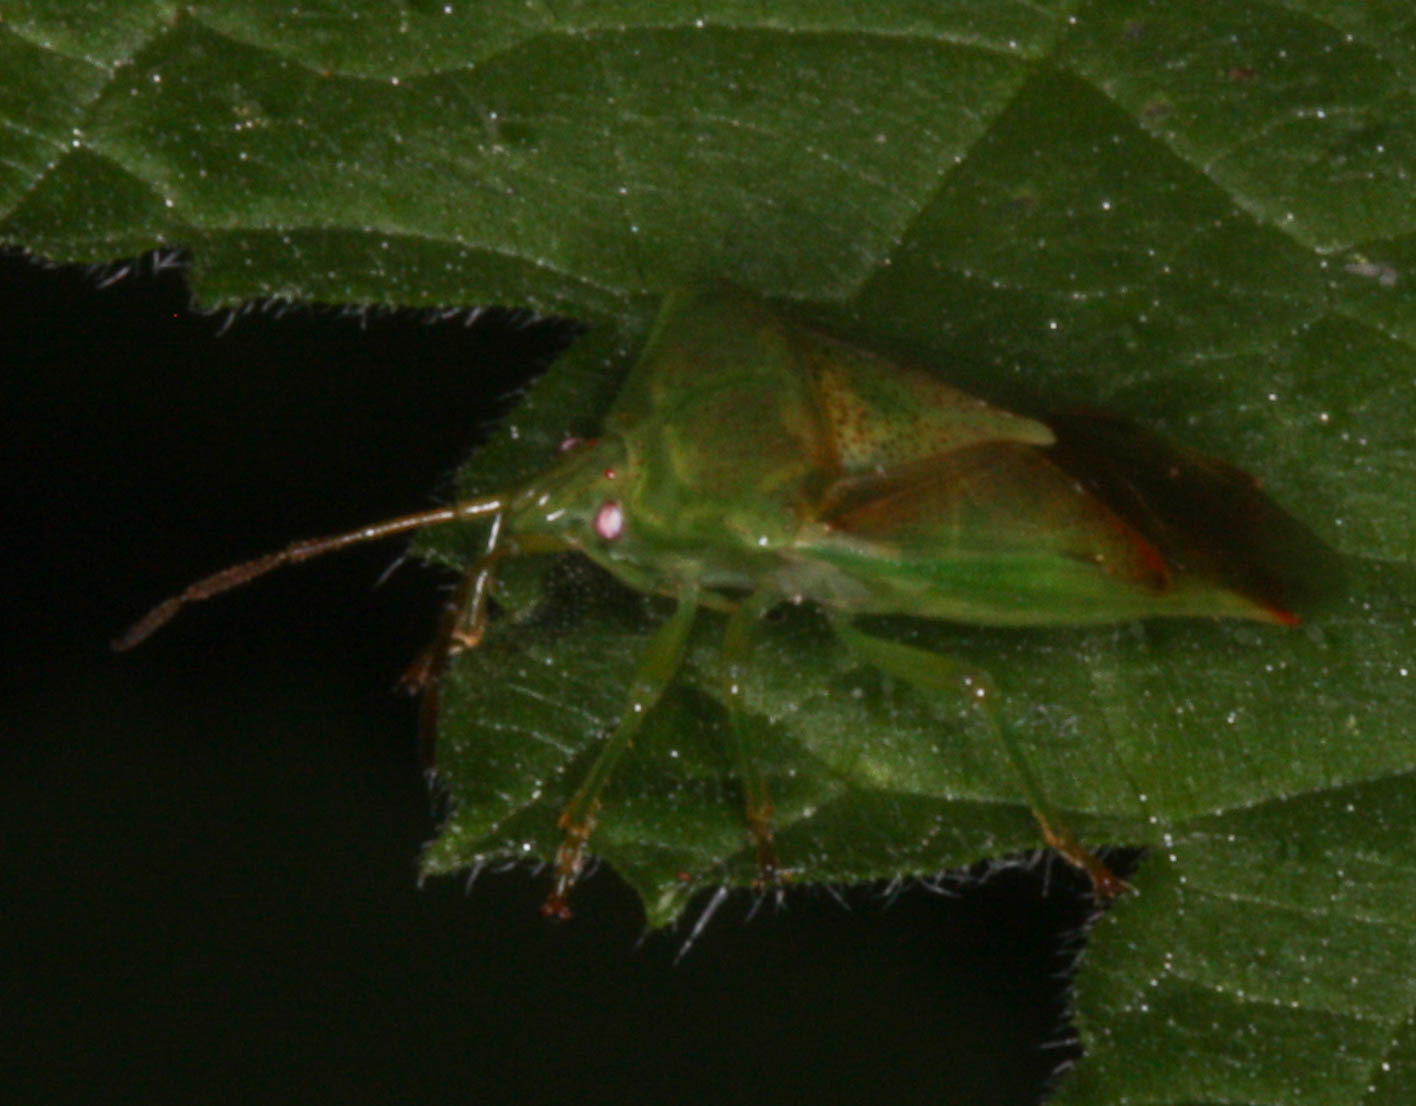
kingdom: Animalia
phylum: Arthropoda
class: Insecta
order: Hemiptera
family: Acanthosomatidae
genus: Elasmostethus
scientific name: Elasmostethus cruciatus
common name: Red-cross shield bug
